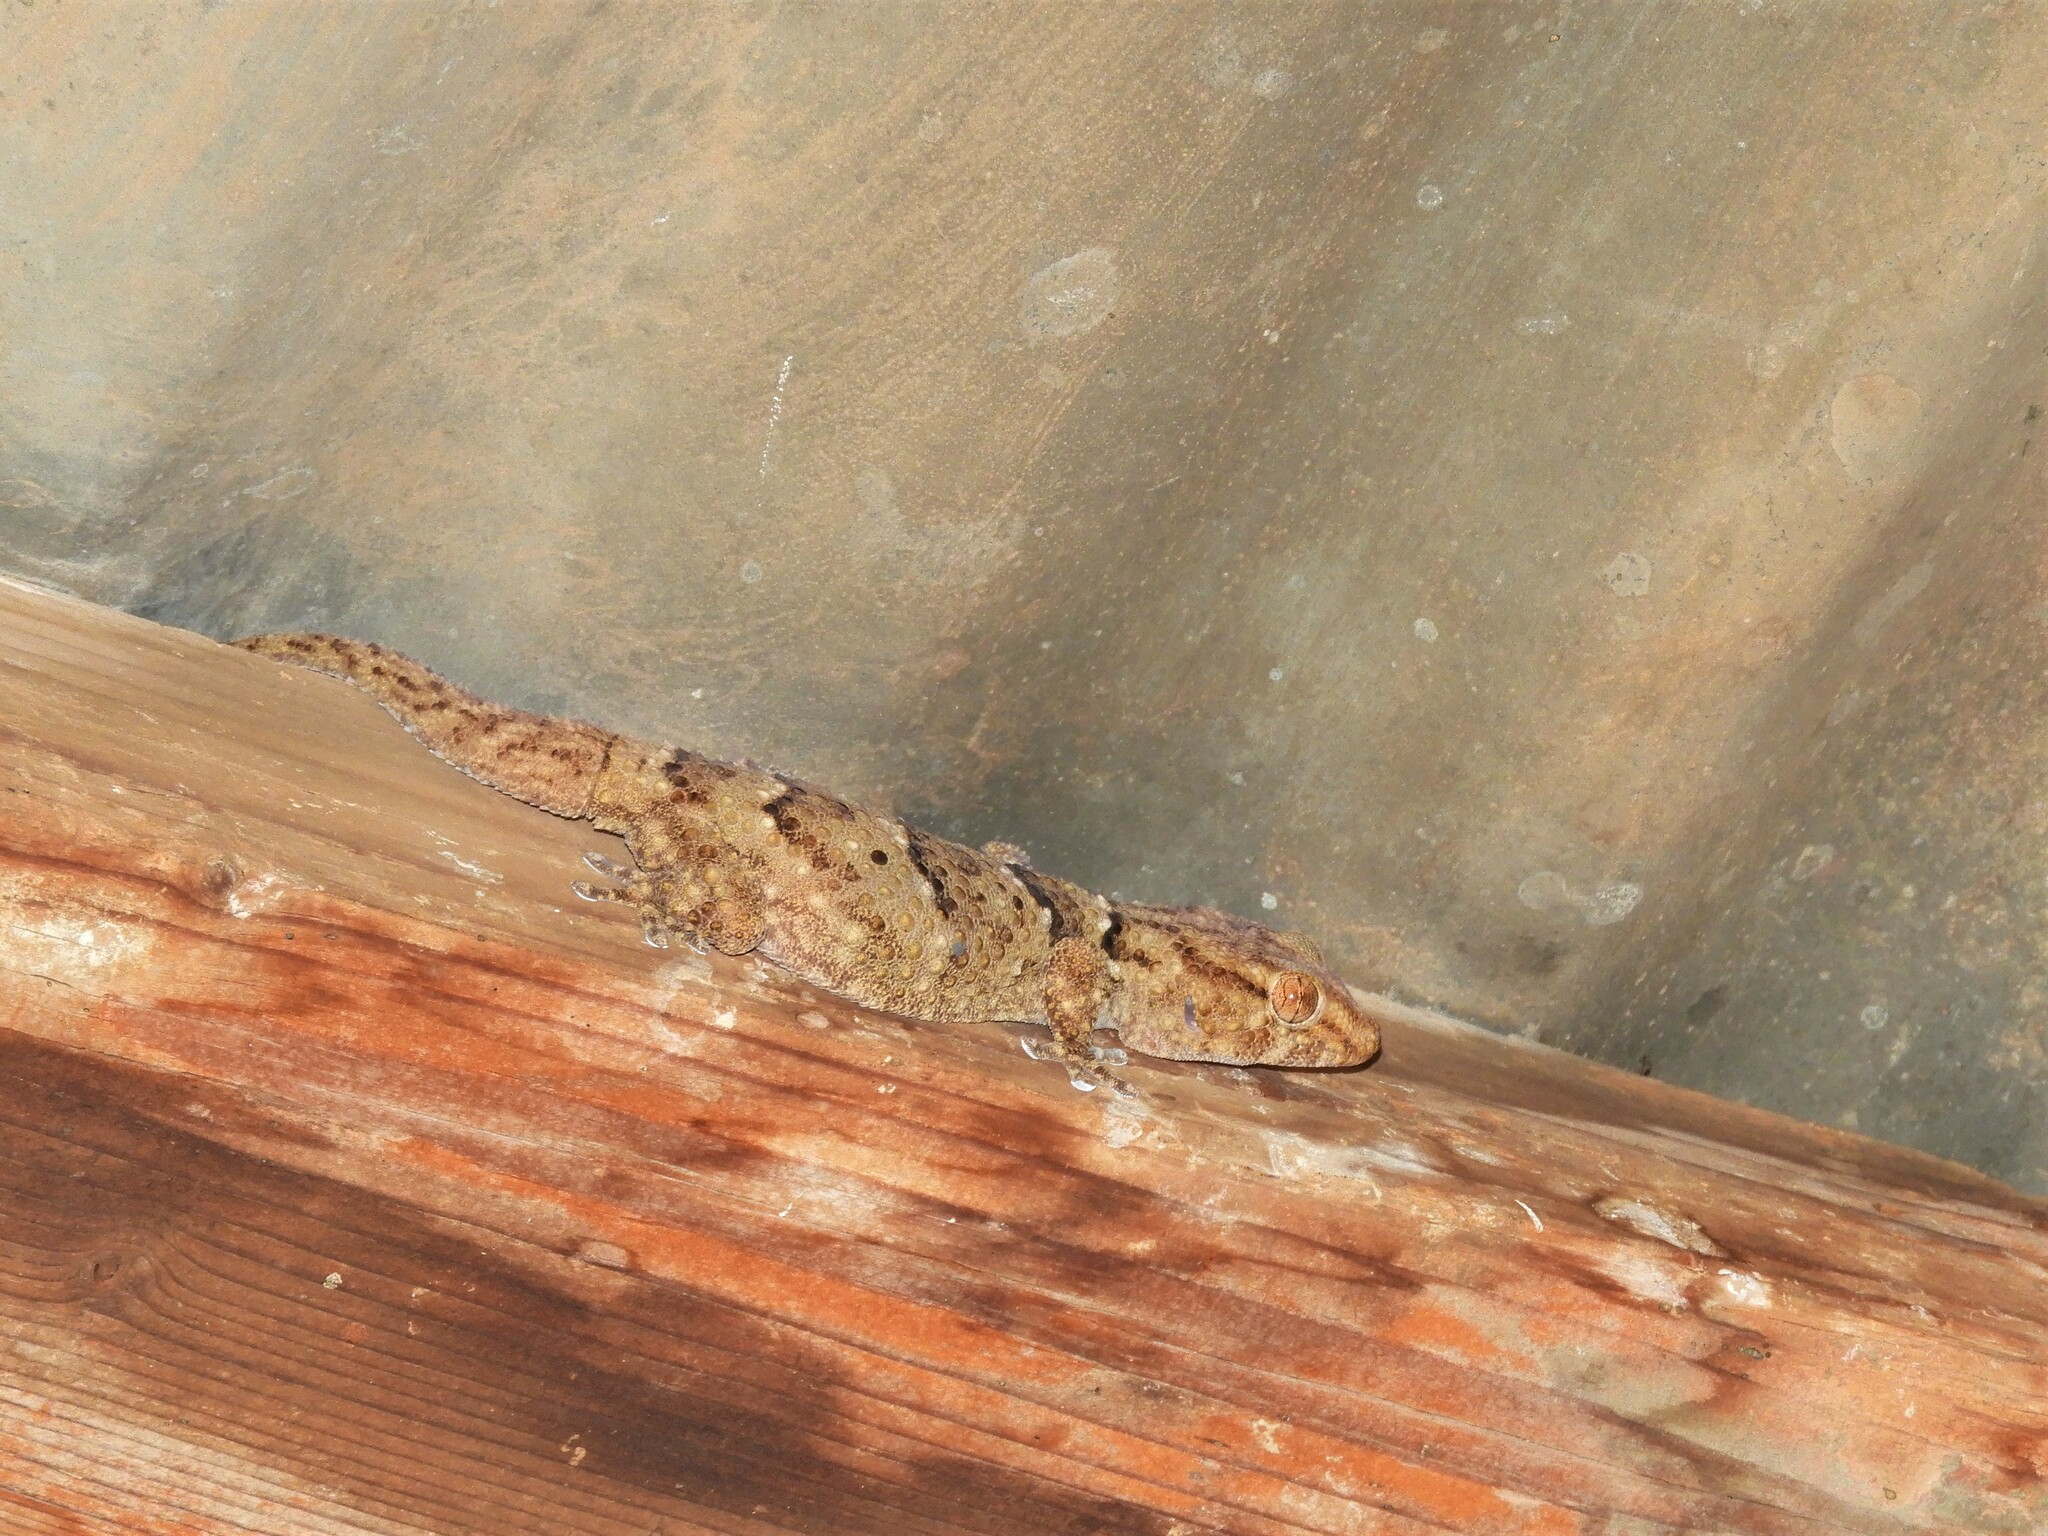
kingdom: Animalia
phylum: Chordata
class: Squamata
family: Gekkonidae
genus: Chondrodactylus
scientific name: Chondrodactylus laevigatus
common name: Fischer's thick-toed gecko
